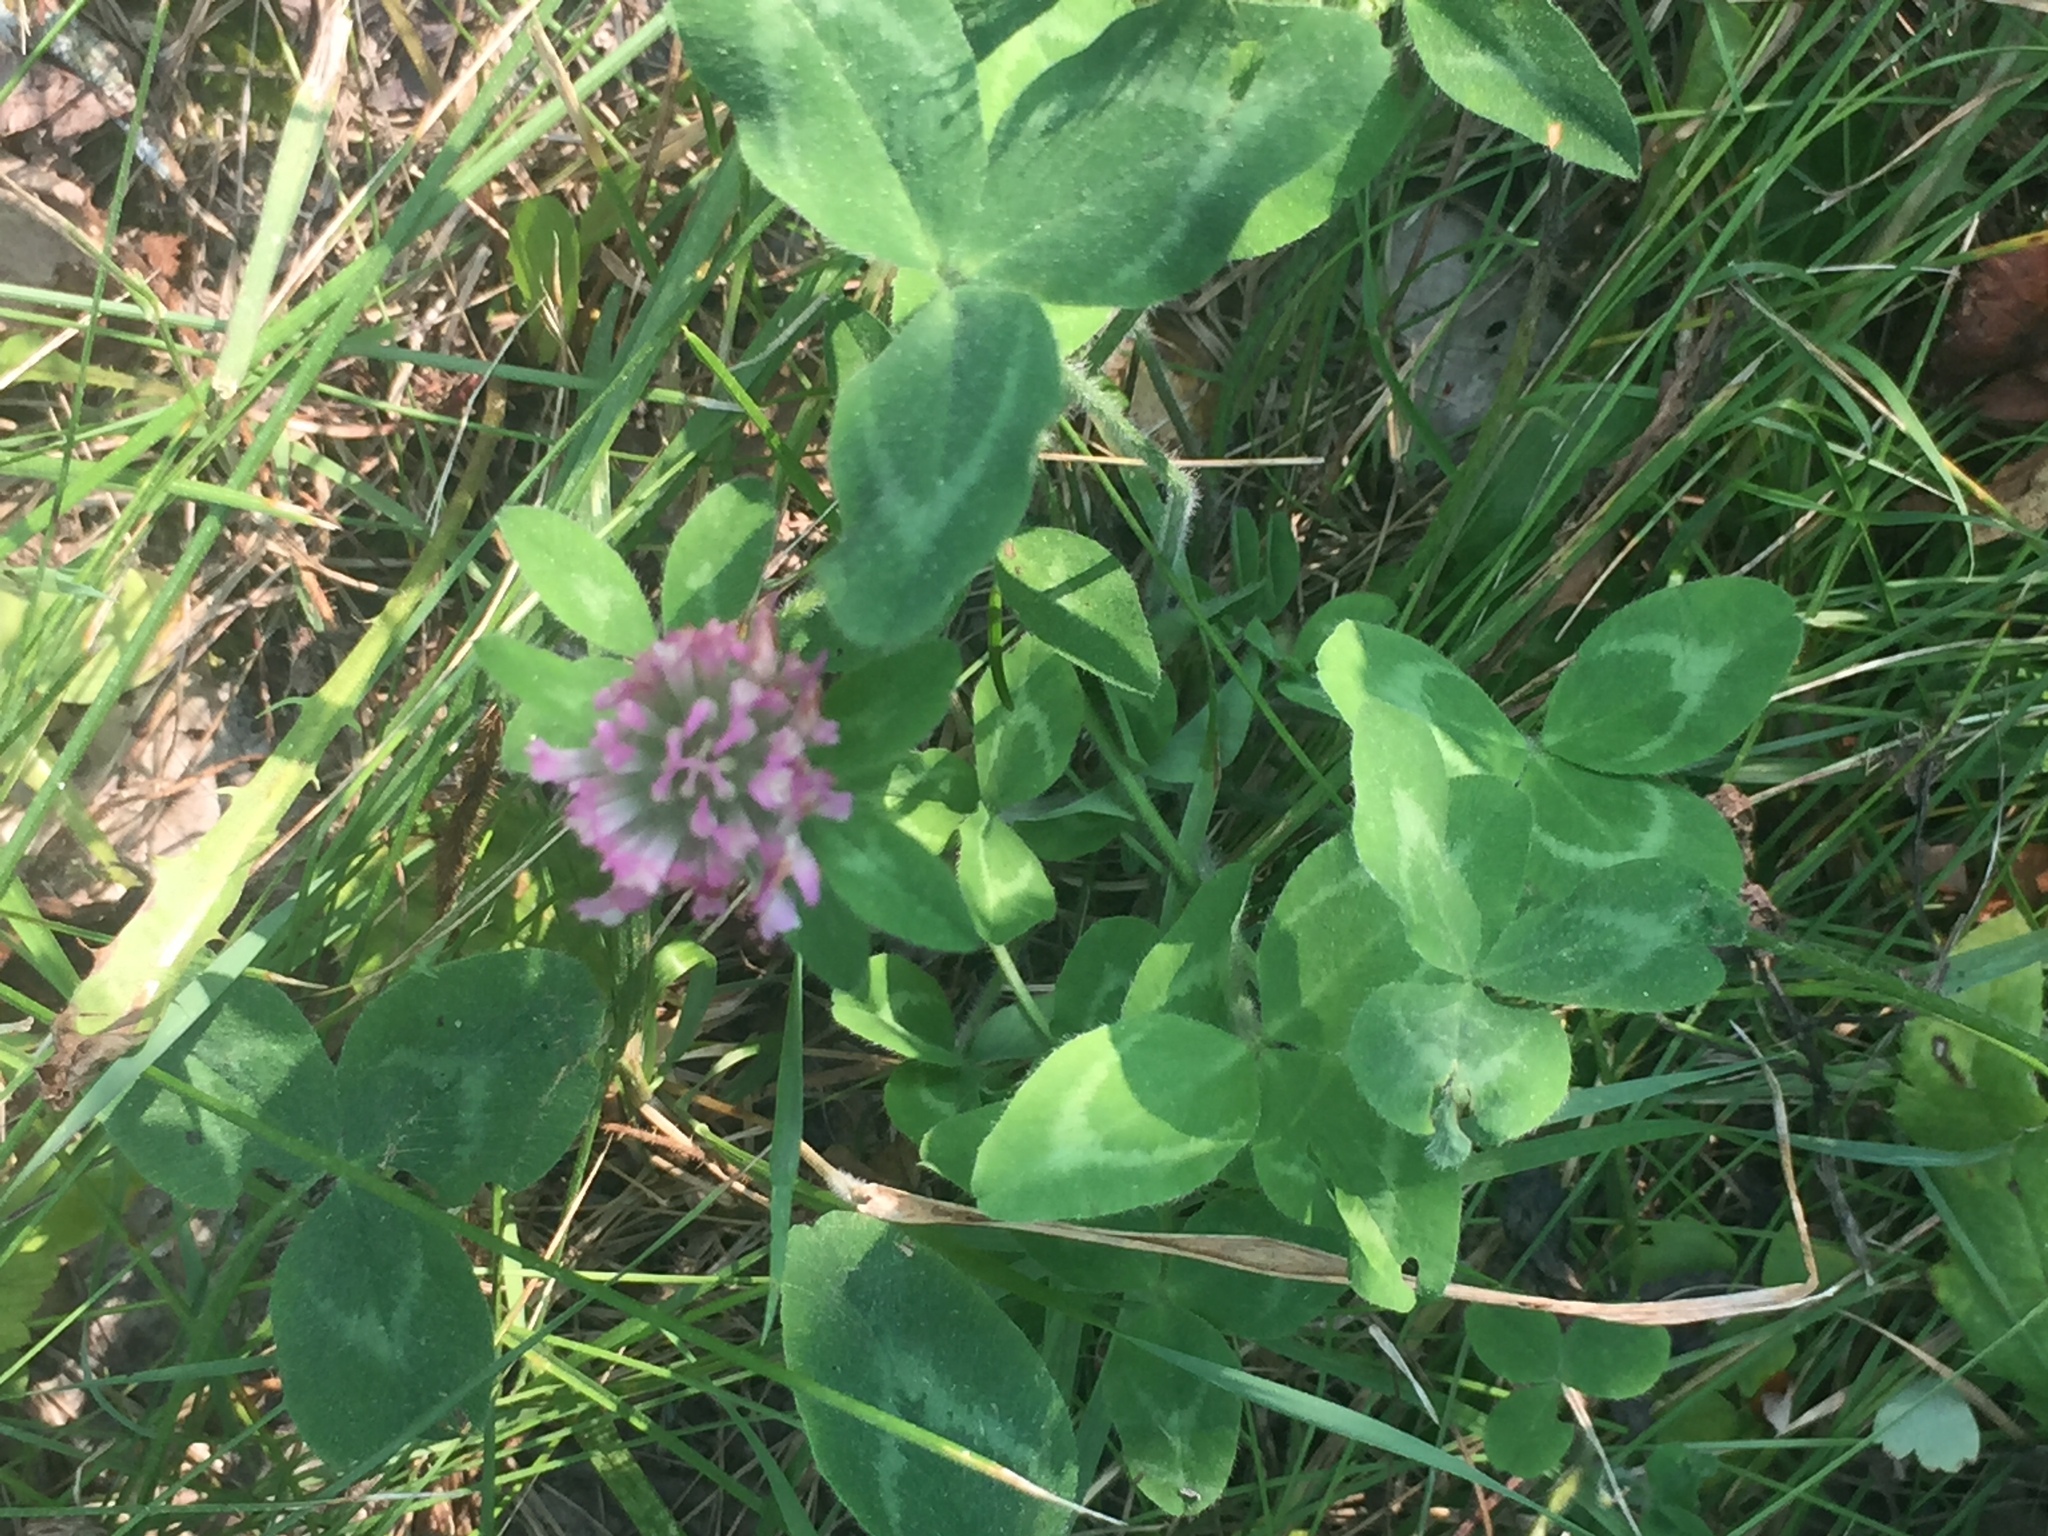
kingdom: Plantae
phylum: Tracheophyta
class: Magnoliopsida
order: Fabales
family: Fabaceae
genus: Trifolium
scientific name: Trifolium pratense
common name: Red clover
